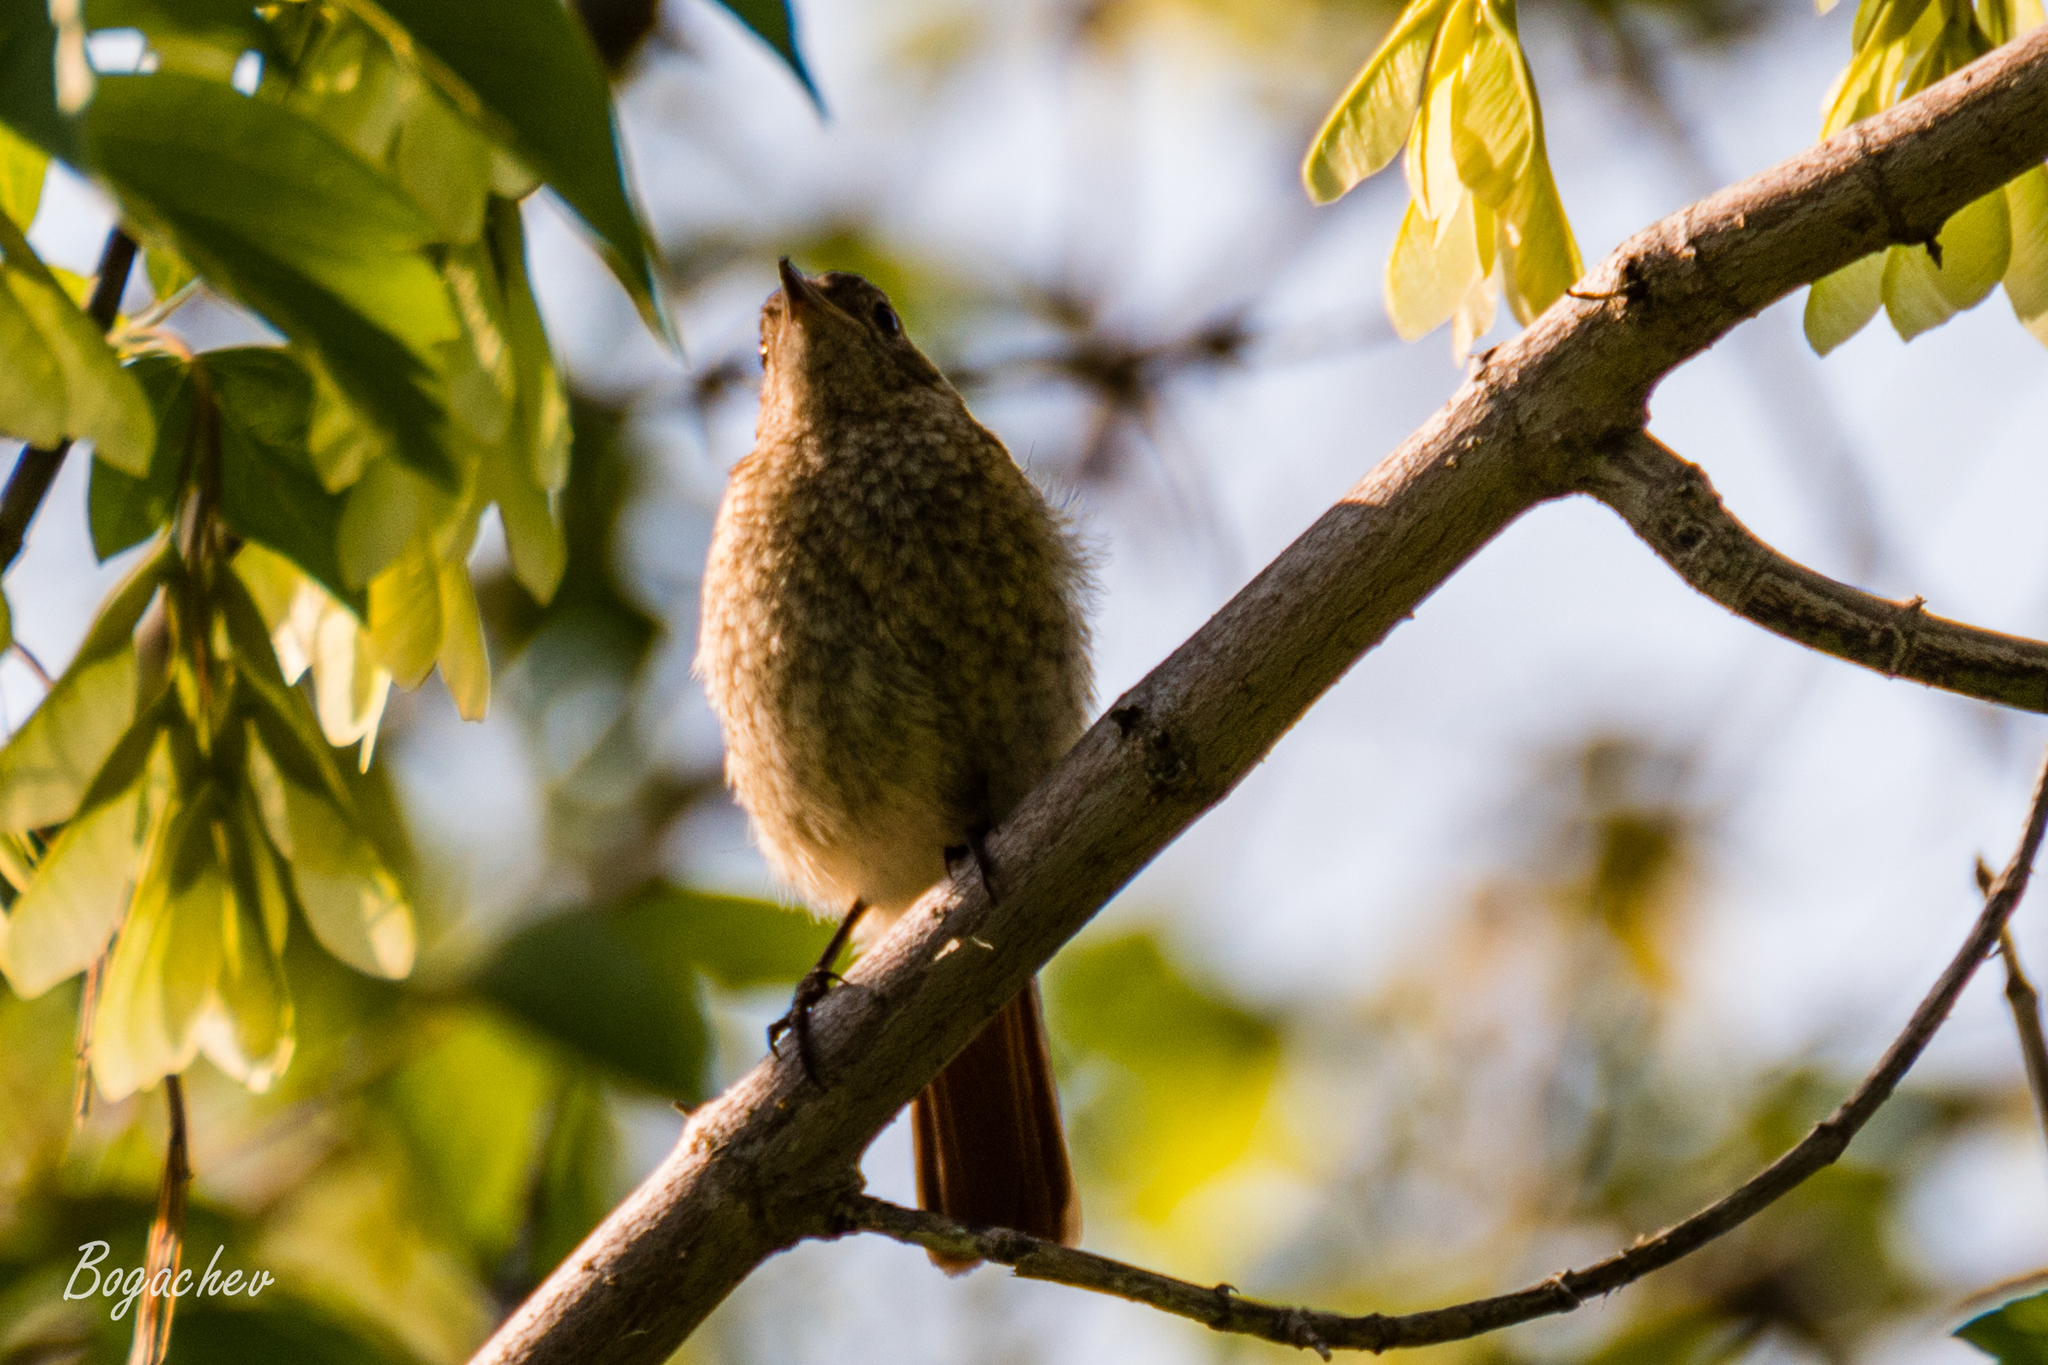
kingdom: Animalia
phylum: Chordata
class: Aves
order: Passeriformes
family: Muscicapidae
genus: Phoenicurus
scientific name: Phoenicurus phoenicurus
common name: Common redstart
